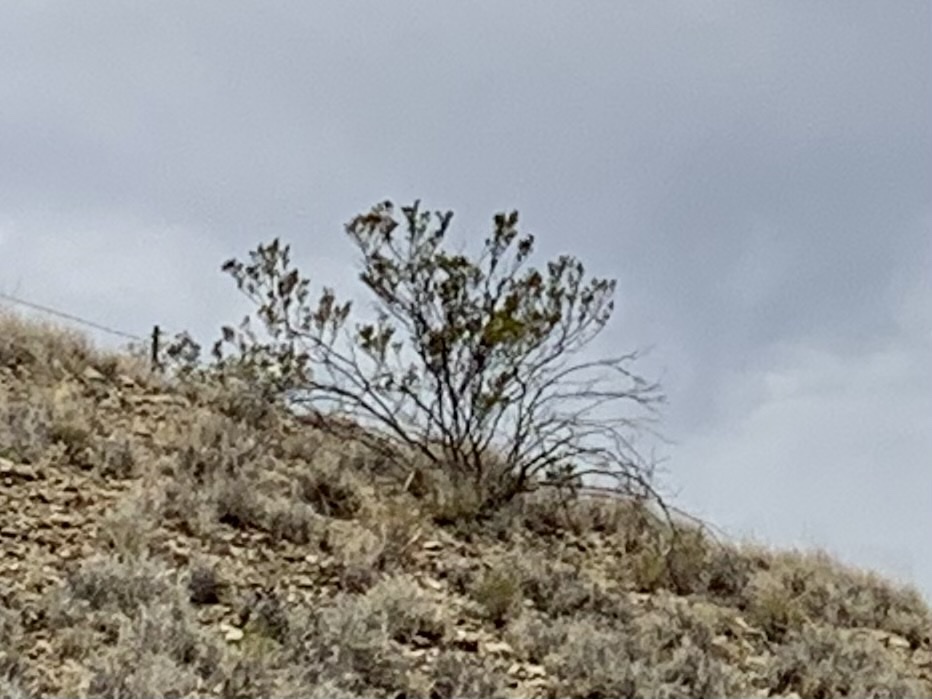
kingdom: Plantae
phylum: Tracheophyta
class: Magnoliopsida
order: Zygophyllales
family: Zygophyllaceae
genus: Larrea
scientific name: Larrea tridentata
